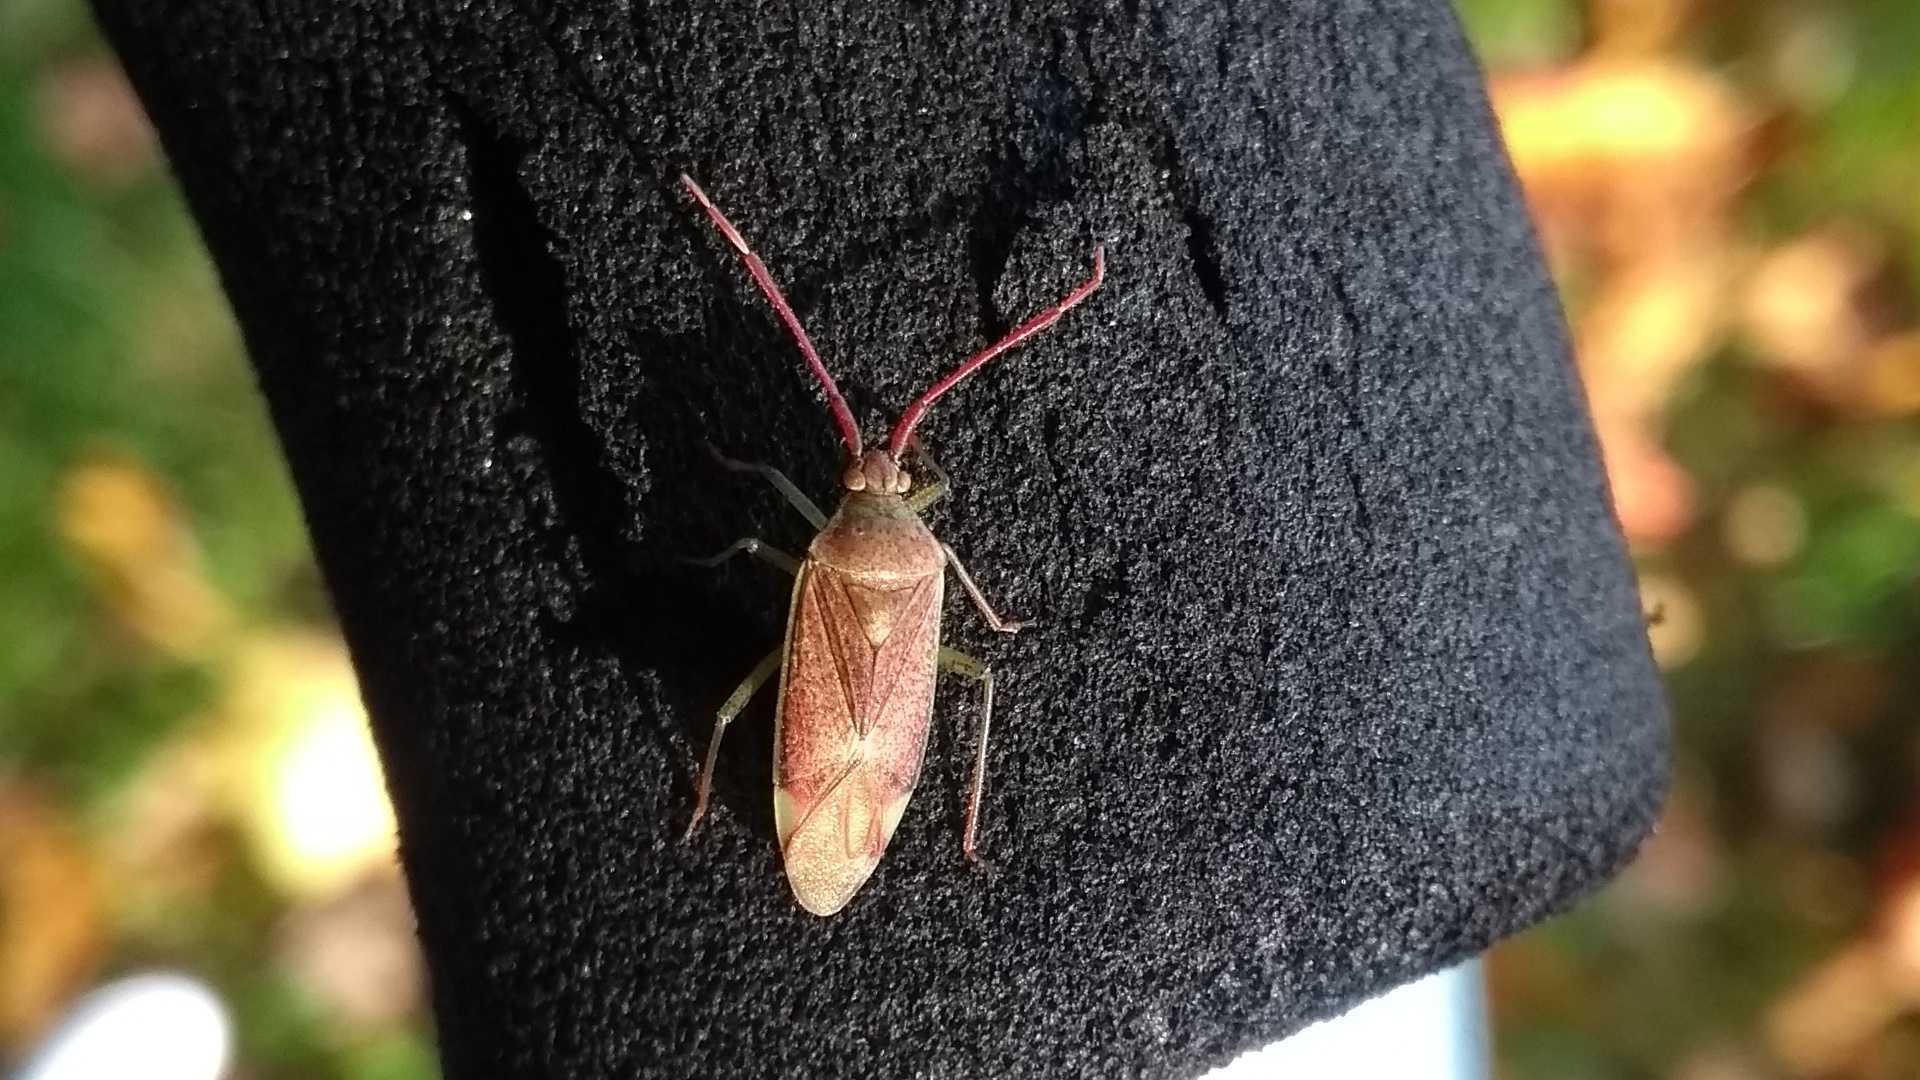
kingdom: Animalia
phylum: Arthropoda
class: Insecta
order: Hemiptera
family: Miridae
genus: Pantilius
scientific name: Pantilius tunicatus
